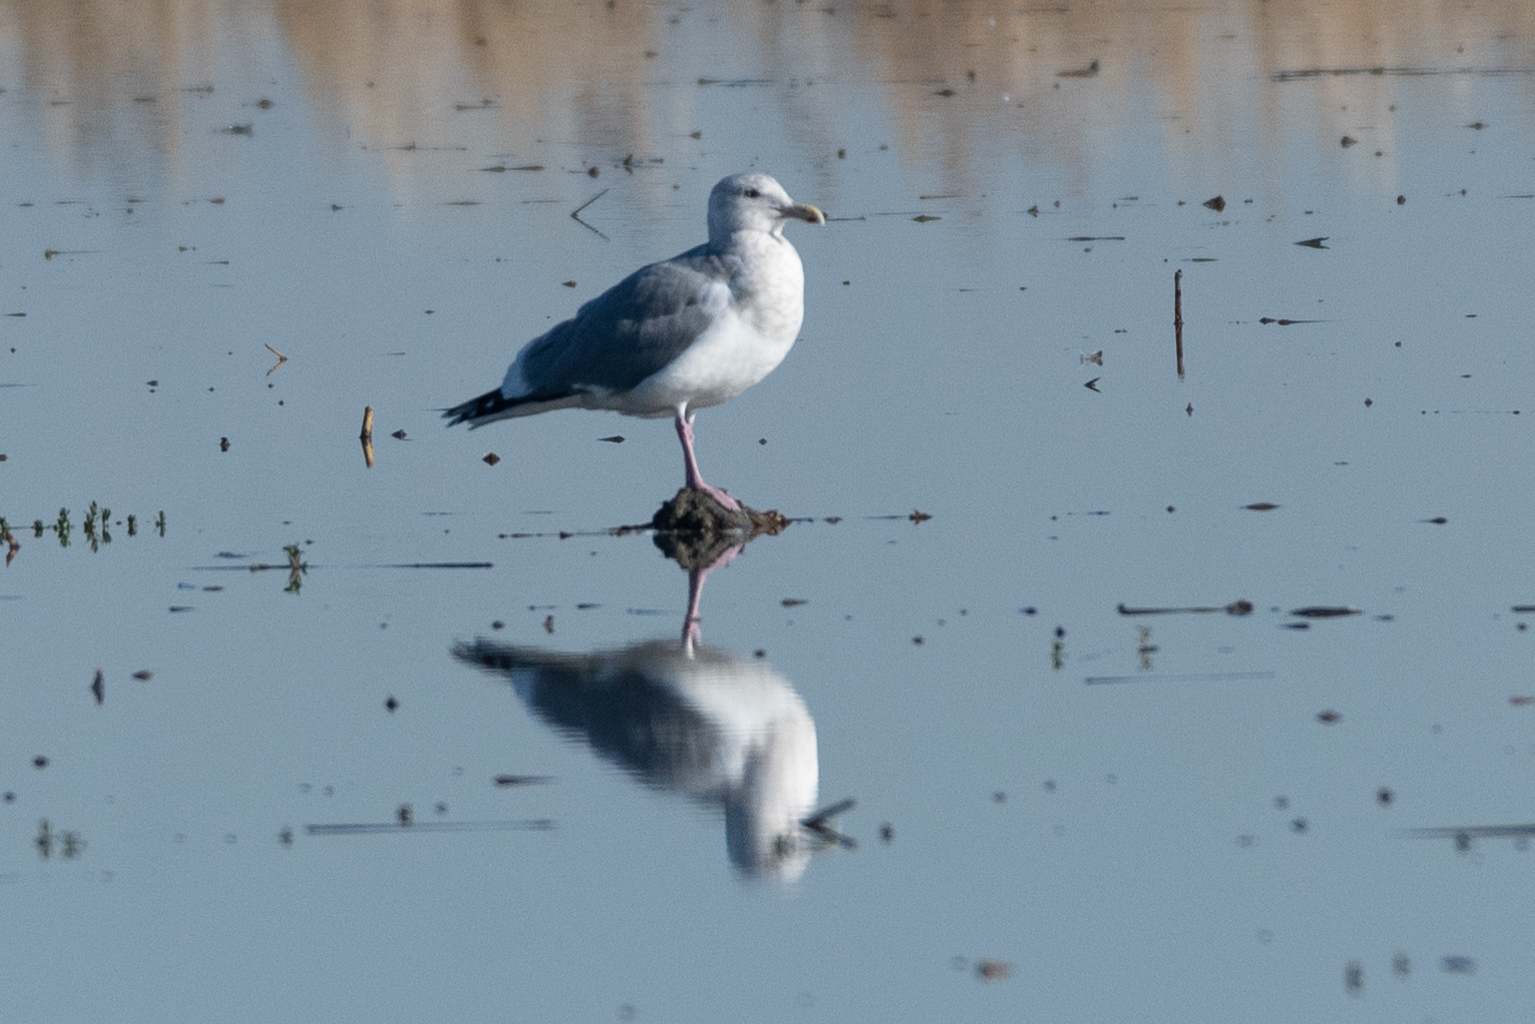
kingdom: Animalia
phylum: Chordata
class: Aves
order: Charadriiformes
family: Laridae
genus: Larus
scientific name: Larus argentatus
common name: Herring gull
